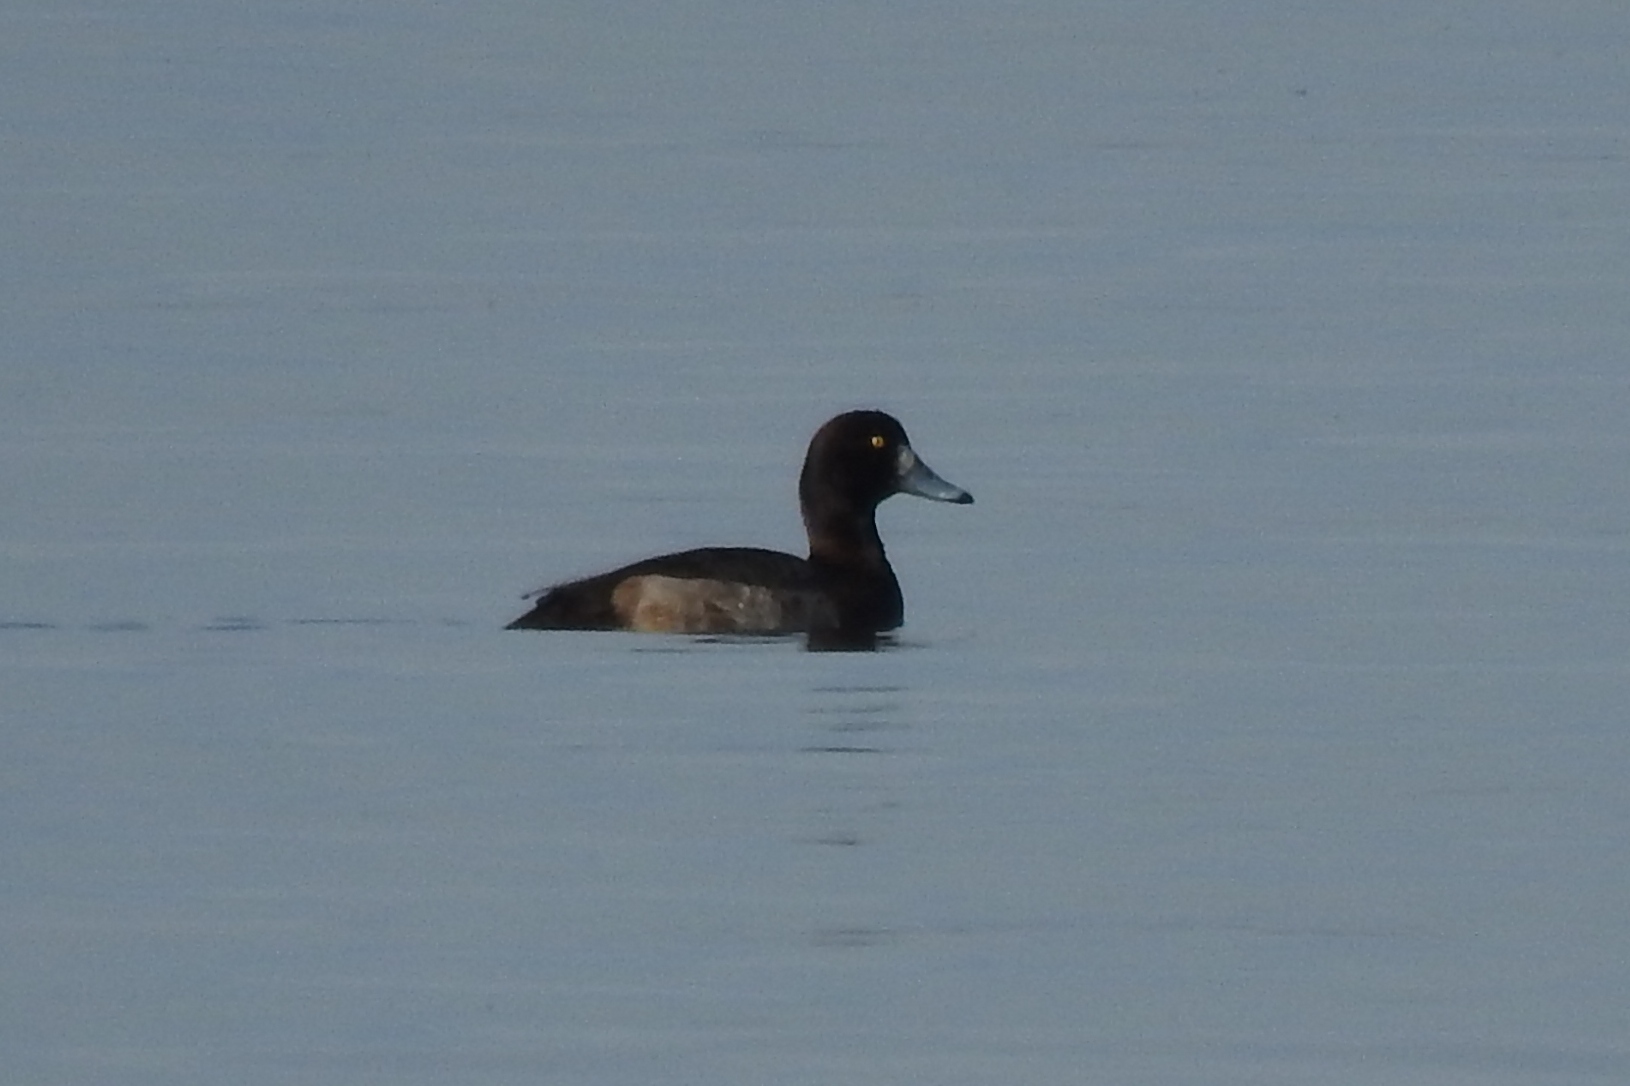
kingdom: Animalia
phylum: Chordata
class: Aves
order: Anseriformes
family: Anatidae
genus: Aythya
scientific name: Aythya marila
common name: Greater scaup
